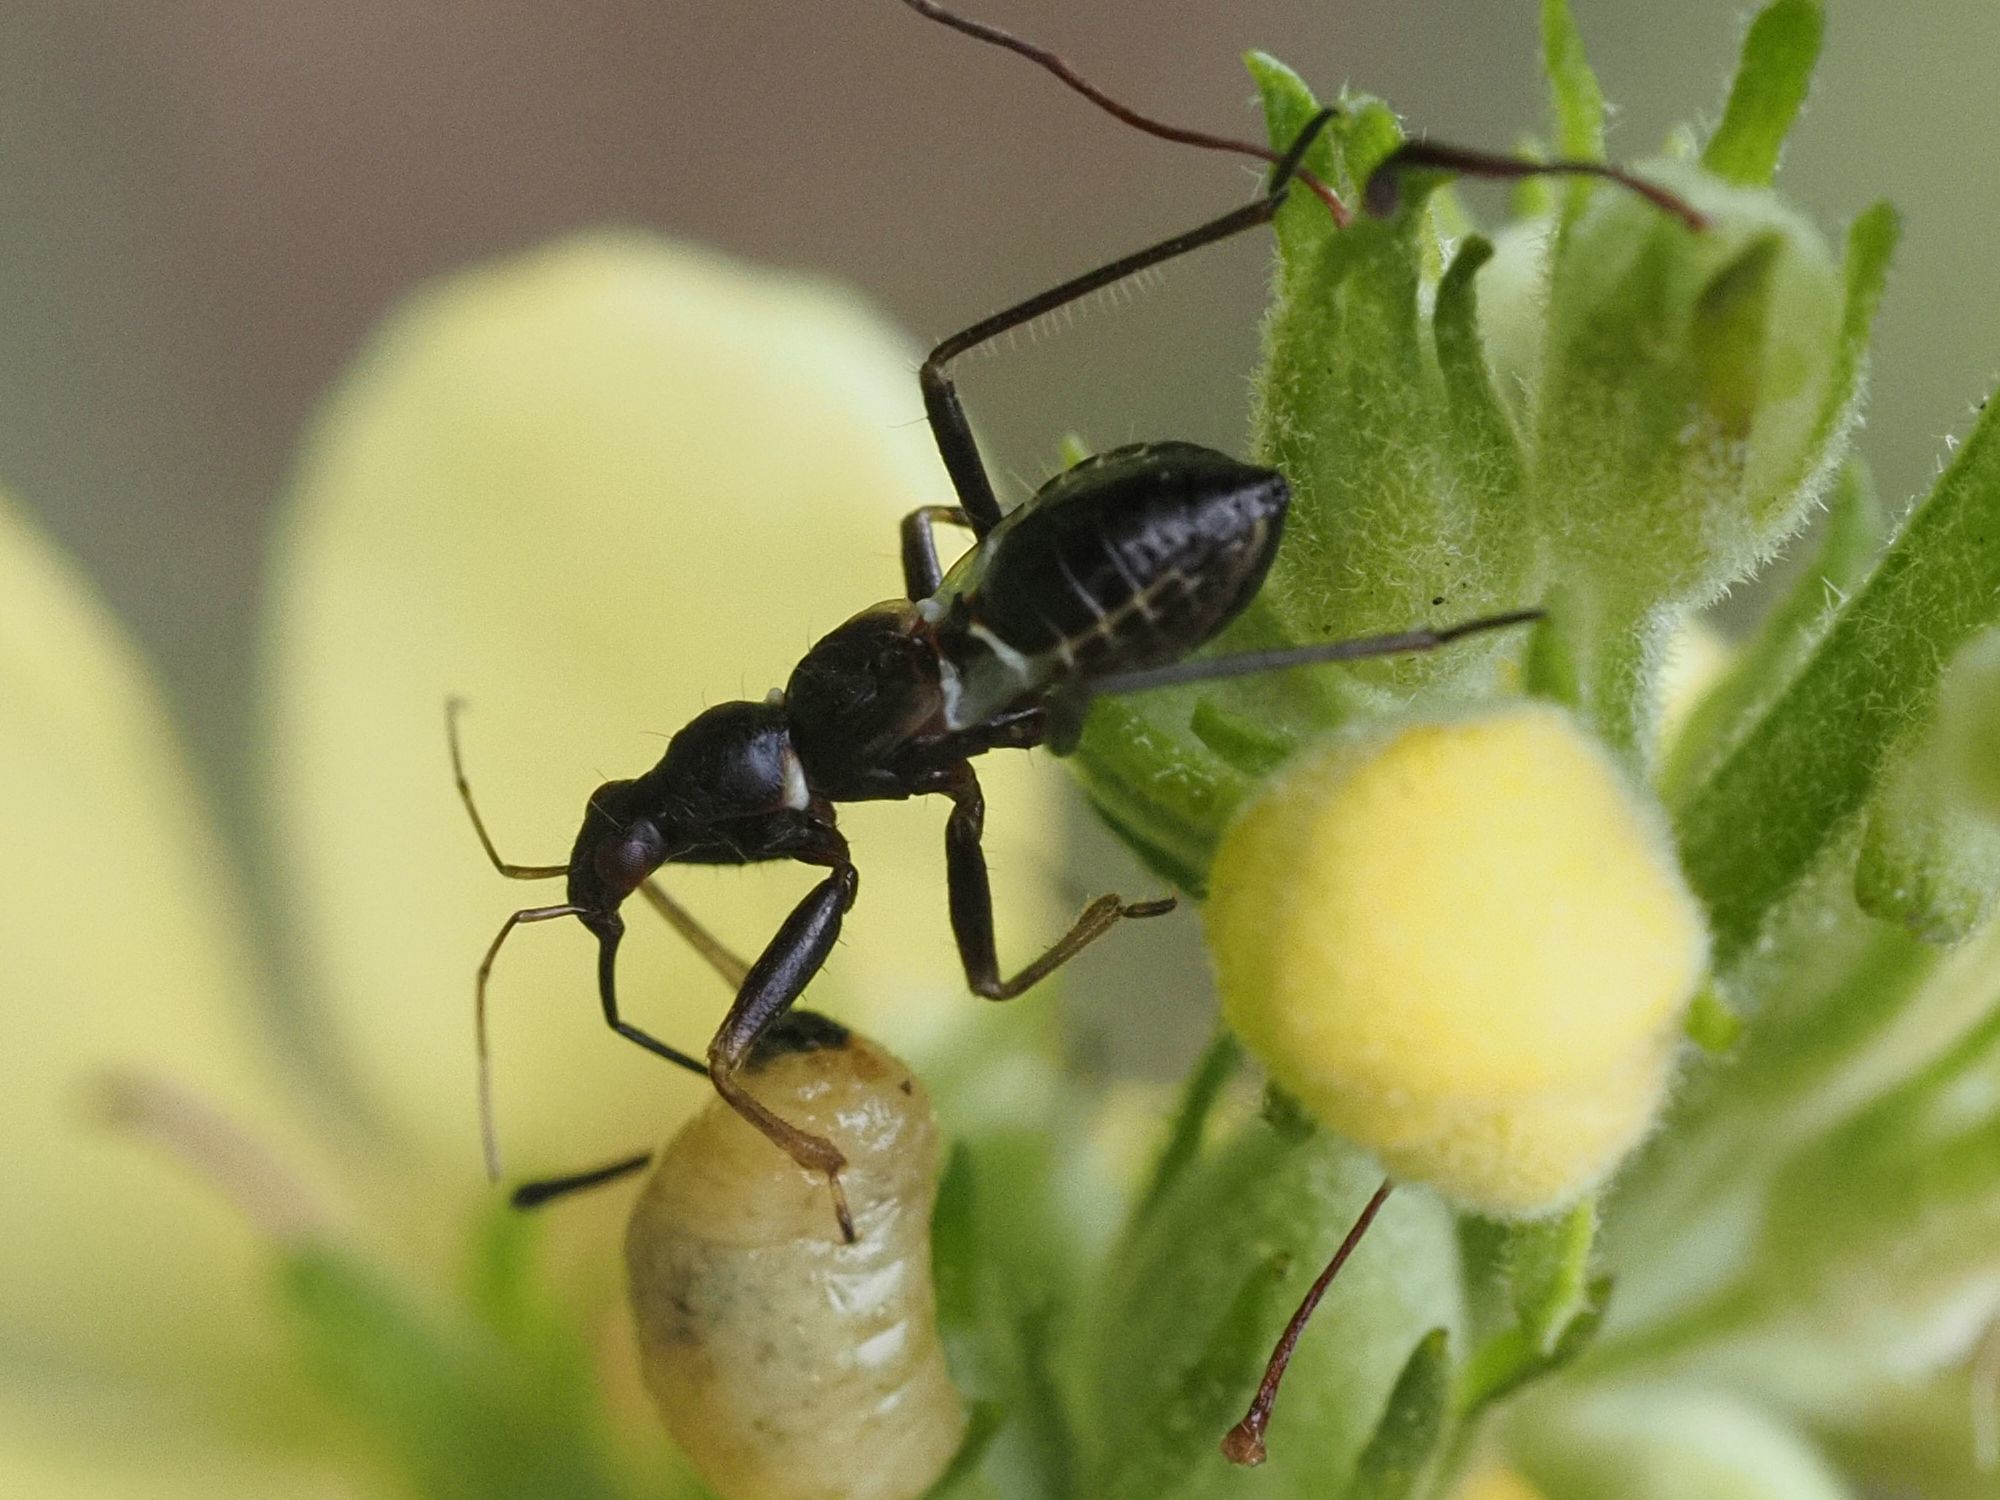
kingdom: Animalia
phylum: Arthropoda
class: Insecta
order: Hemiptera
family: Nabidae
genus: Himacerus
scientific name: Himacerus mirmicoides
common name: Ant damsel bug
